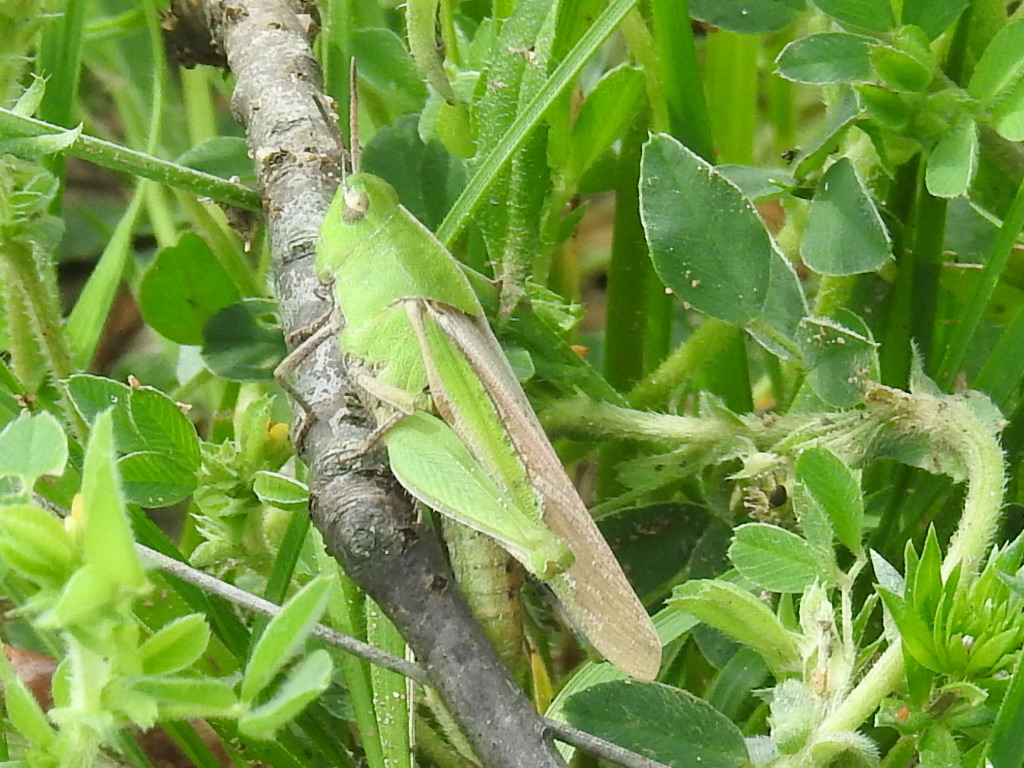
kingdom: Animalia
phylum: Arthropoda
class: Insecta
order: Orthoptera
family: Acrididae
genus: Chortophaga
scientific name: Chortophaga viridifasciata
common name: Green-striped grasshopper
